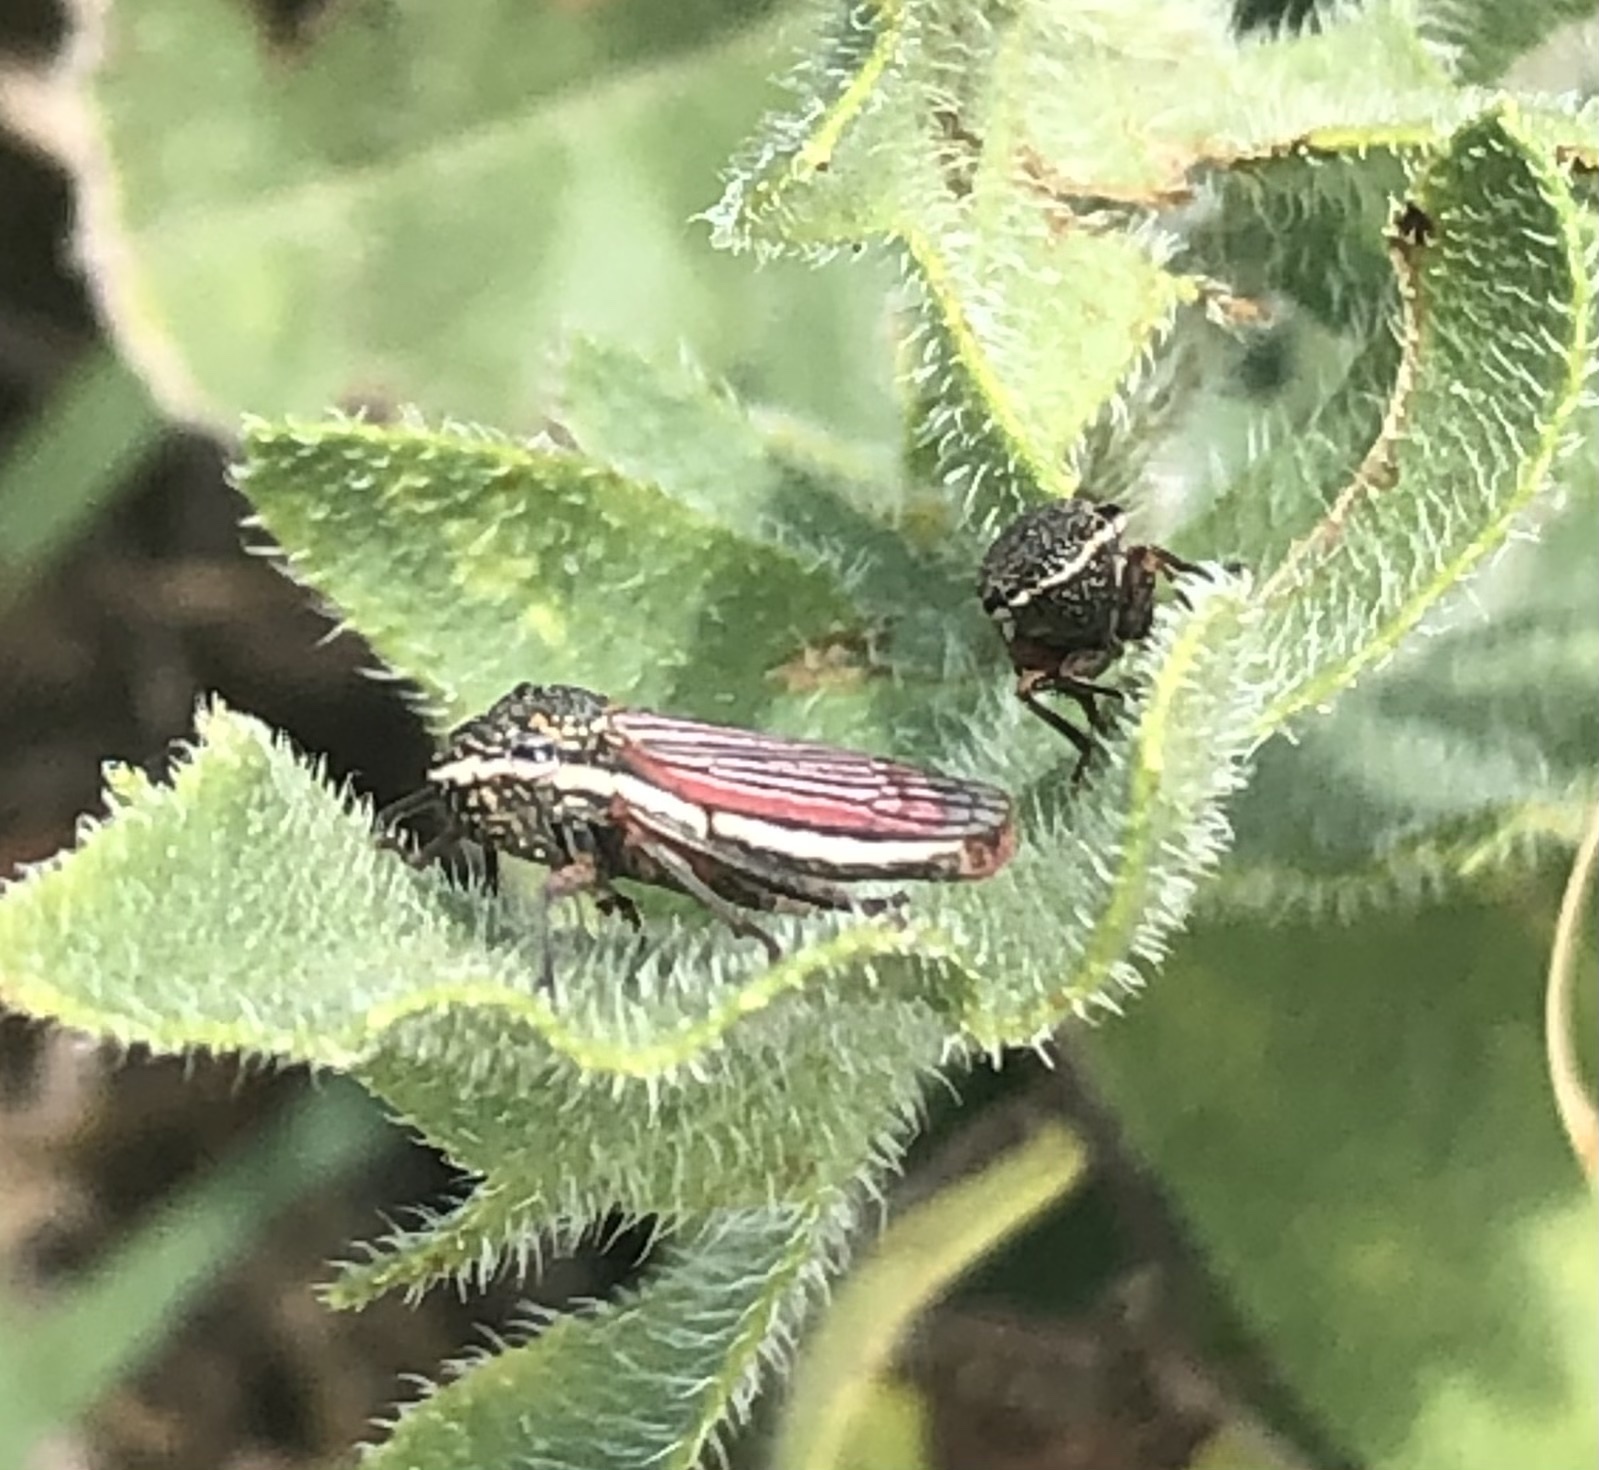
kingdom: Animalia
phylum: Arthropoda
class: Insecta
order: Hemiptera
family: Cicadellidae
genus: Cuerna
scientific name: Cuerna costalis
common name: Lateral-lined sharpshooter
